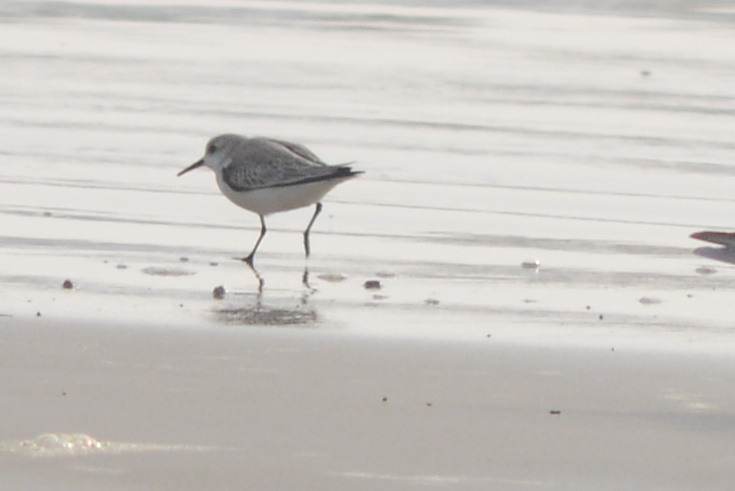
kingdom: Animalia
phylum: Chordata
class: Aves
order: Charadriiformes
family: Scolopacidae
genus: Calidris
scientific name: Calidris alba
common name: Sanderling
